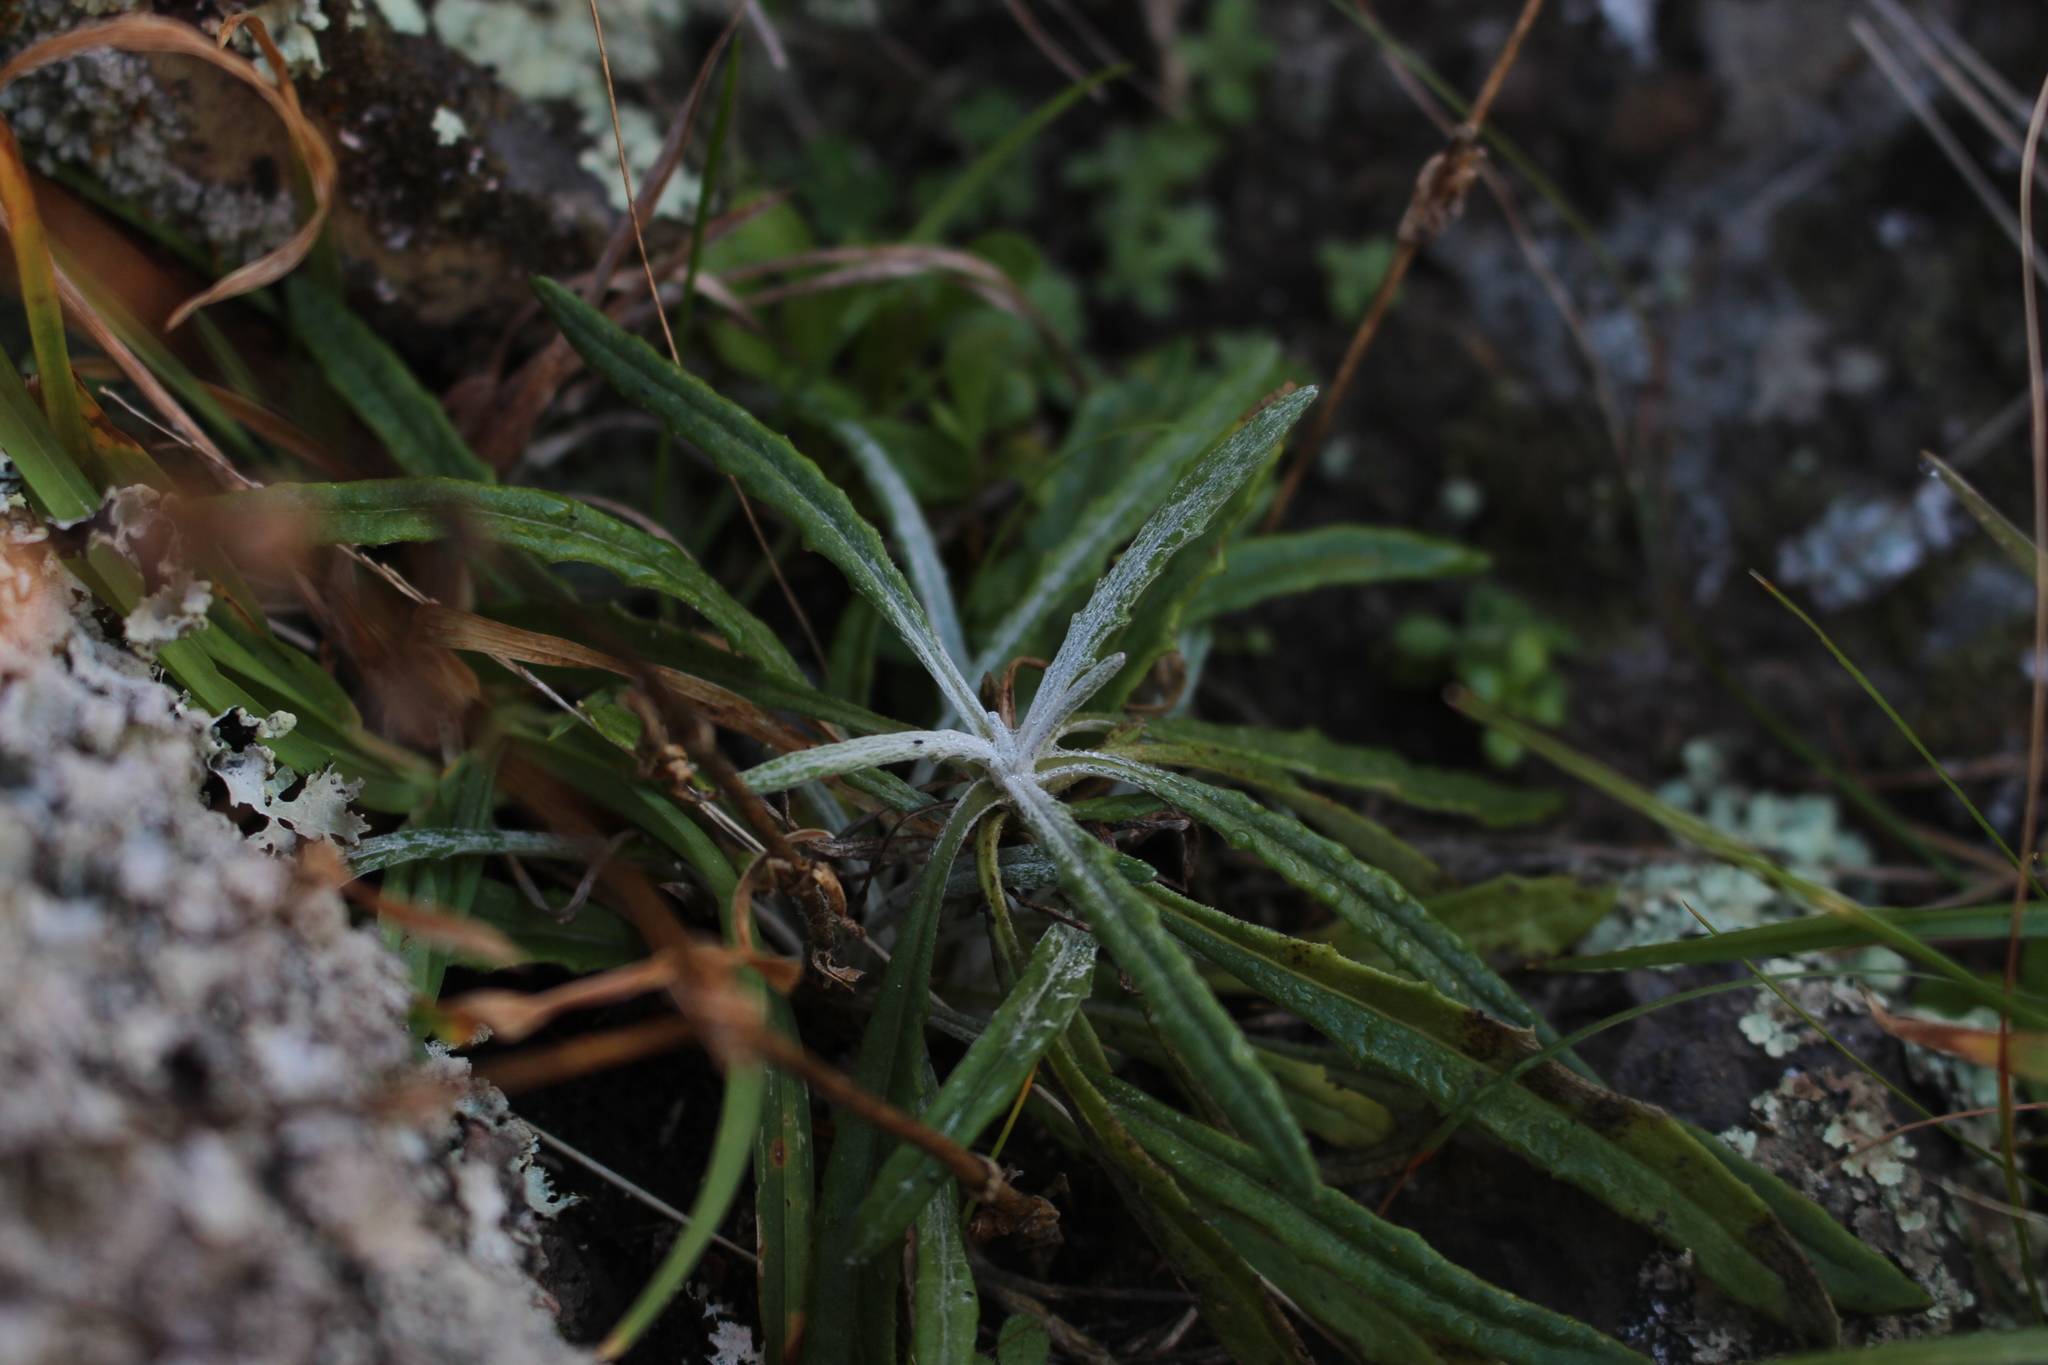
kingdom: Plantae
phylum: Tracheophyta
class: Magnoliopsida
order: Asterales
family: Asteraceae
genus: Senecio
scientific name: Senecio quadridentatus
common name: Cotton fireweed
